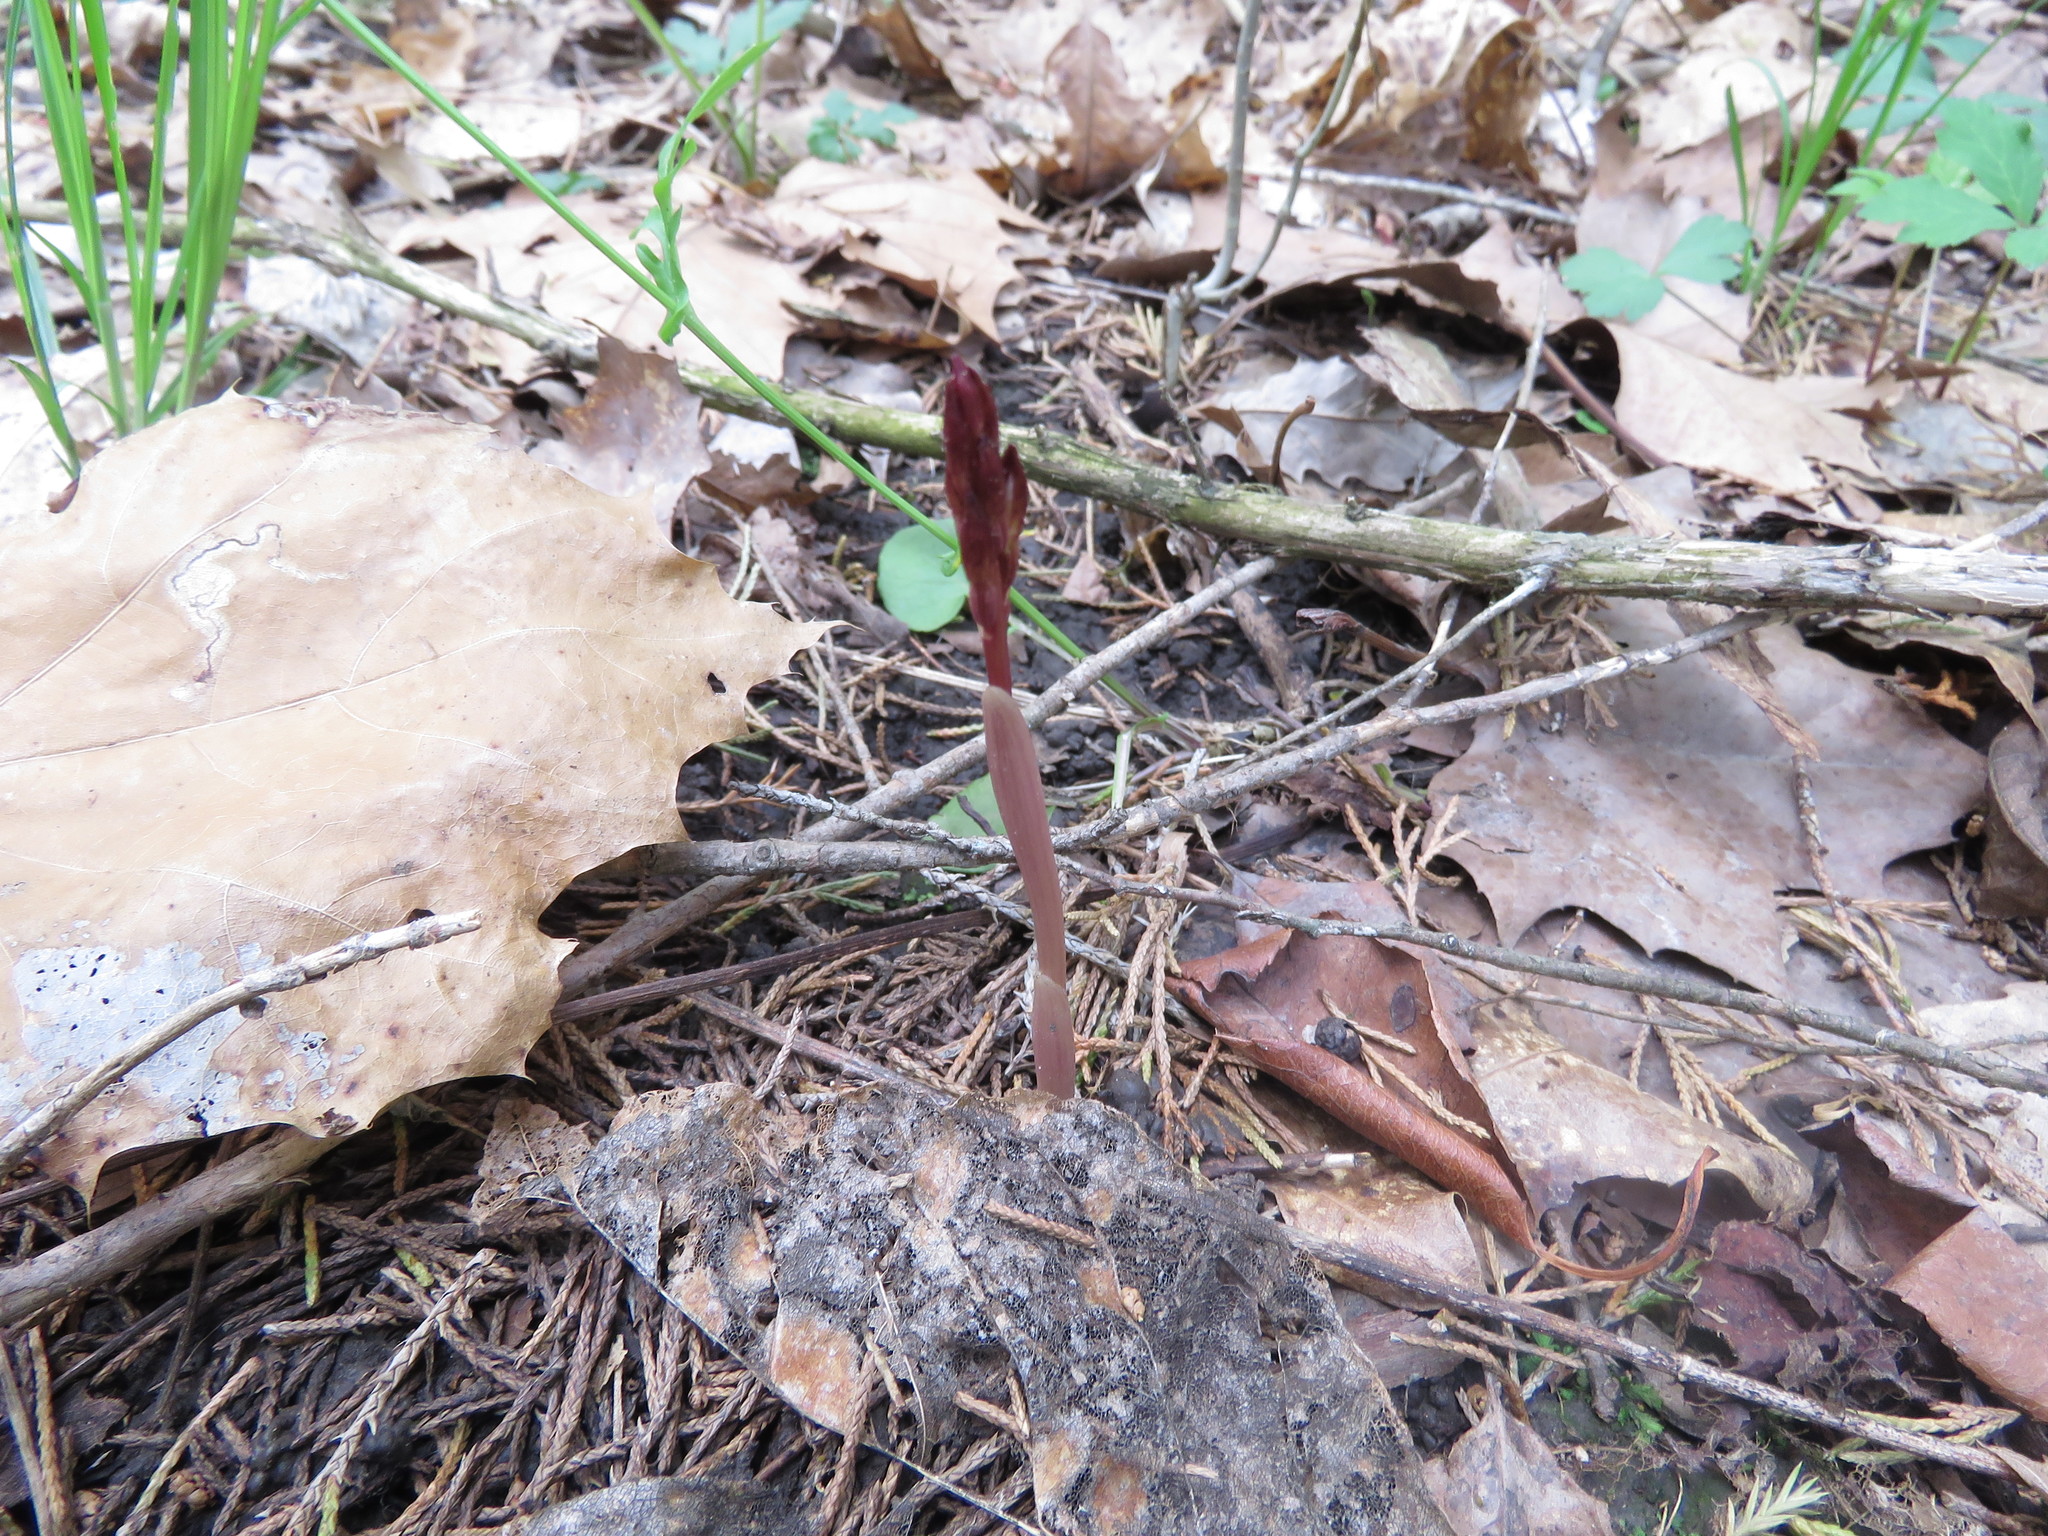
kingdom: Plantae
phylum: Tracheophyta
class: Liliopsida
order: Asparagales
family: Orchidaceae
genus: Corallorhiza
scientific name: Corallorhiza wisteriana
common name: Spring coralroot
